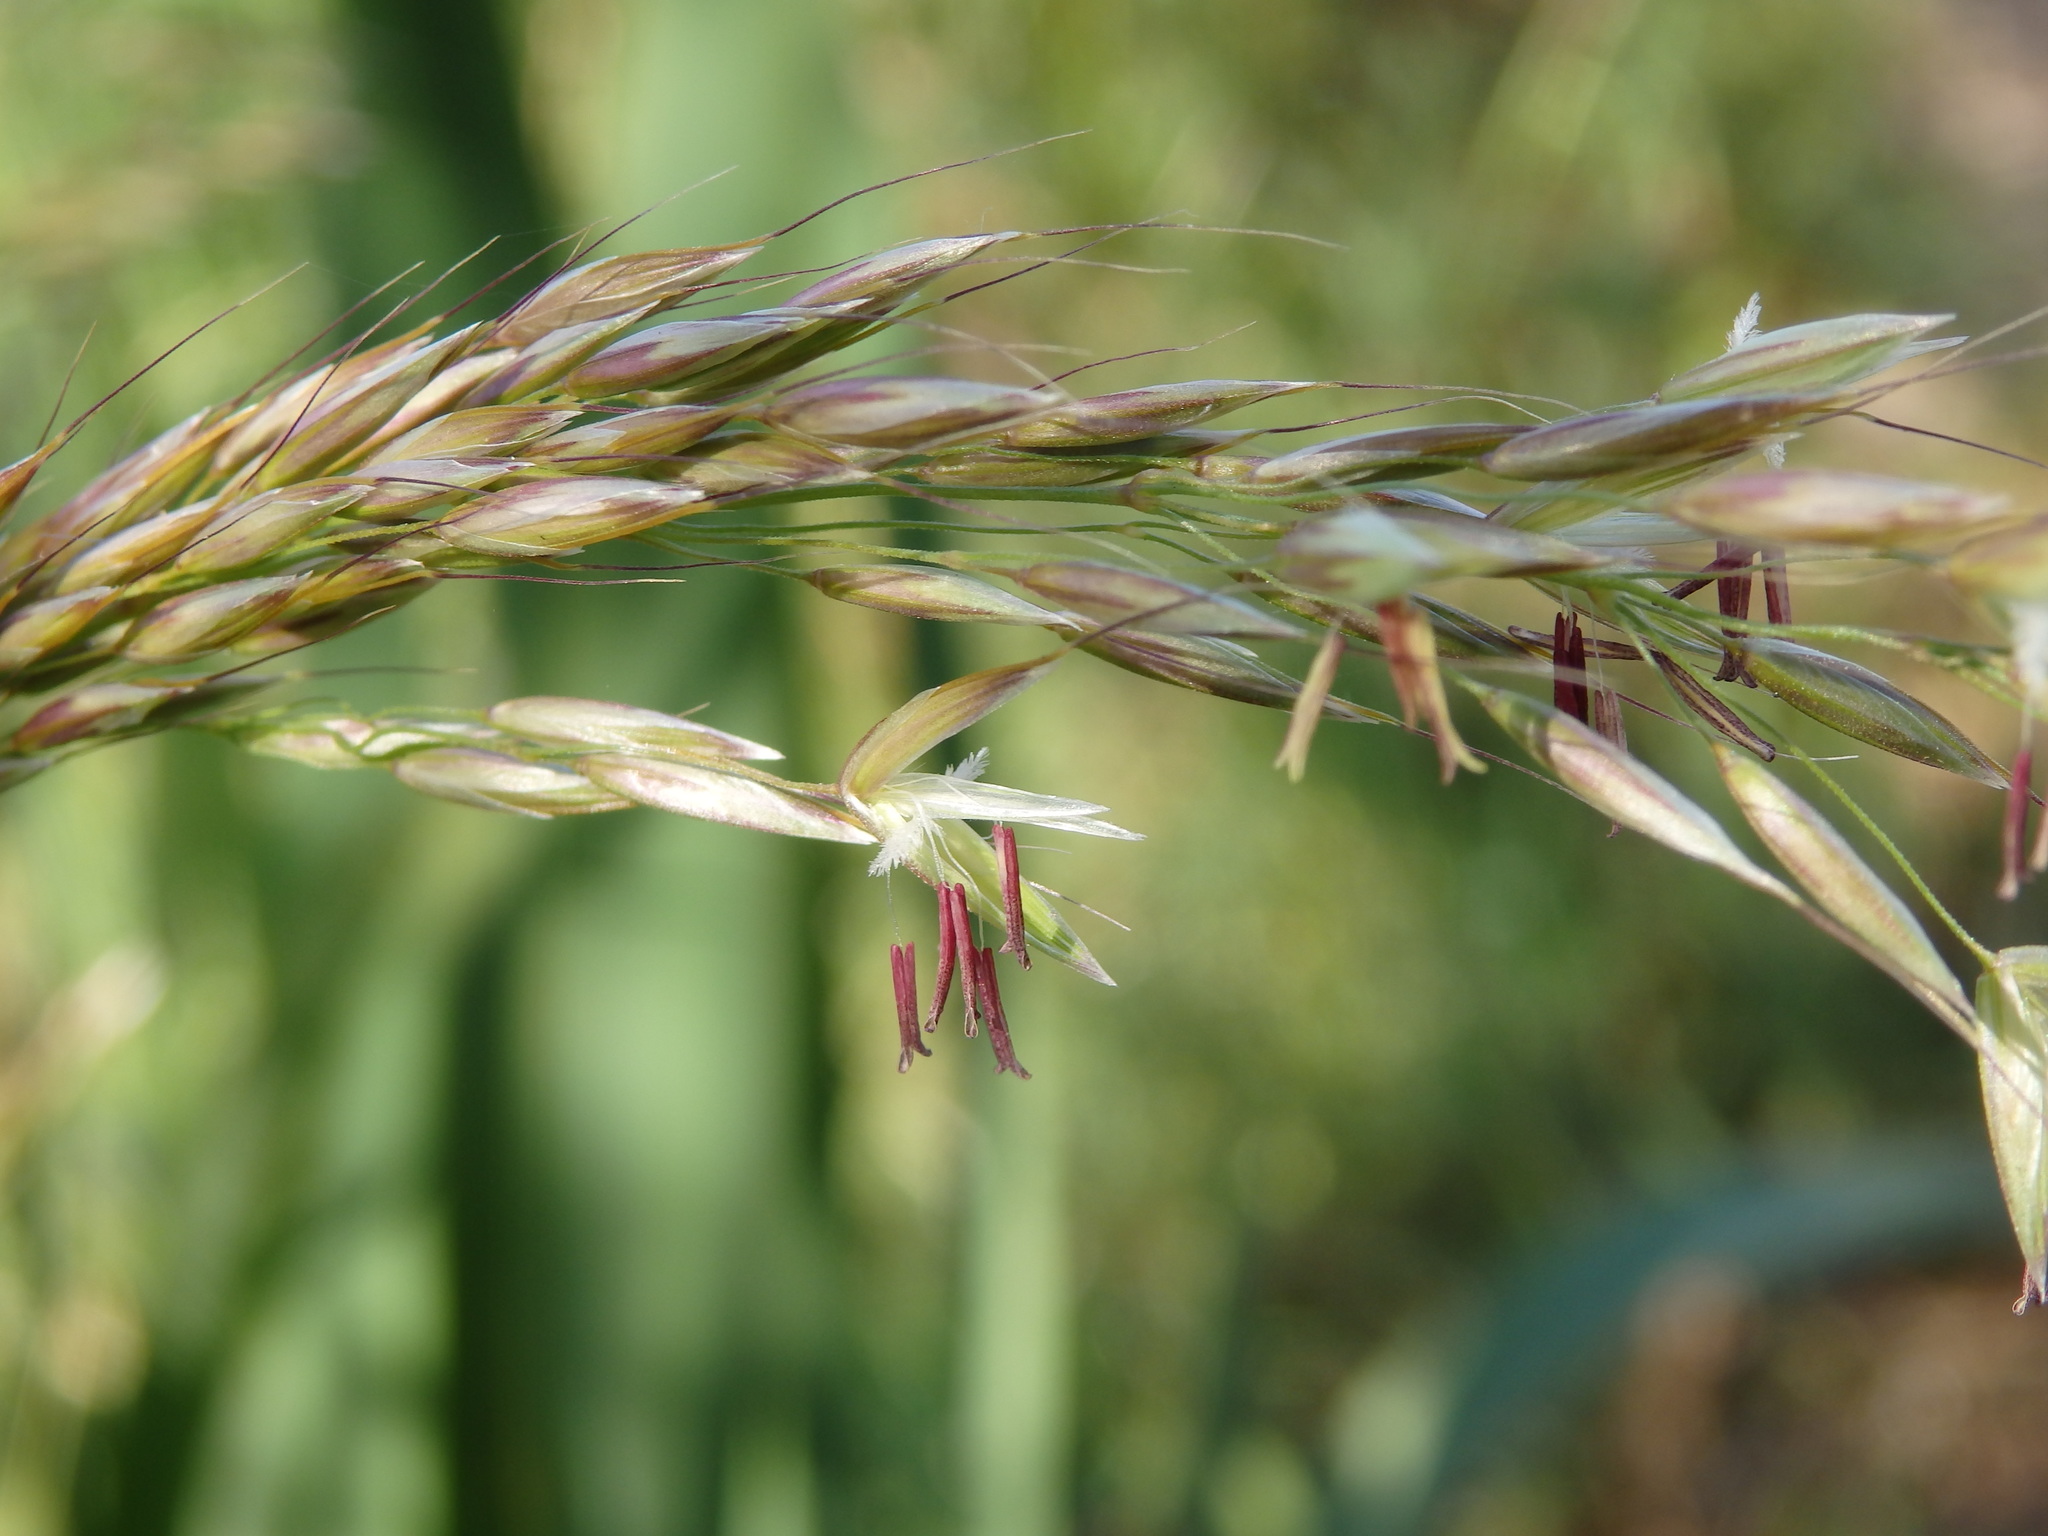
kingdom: Plantae
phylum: Tracheophyta
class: Liliopsida
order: Poales
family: Poaceae
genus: Arrhenatherum
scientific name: Arrhenatherum elatius
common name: Tall oatgrass
